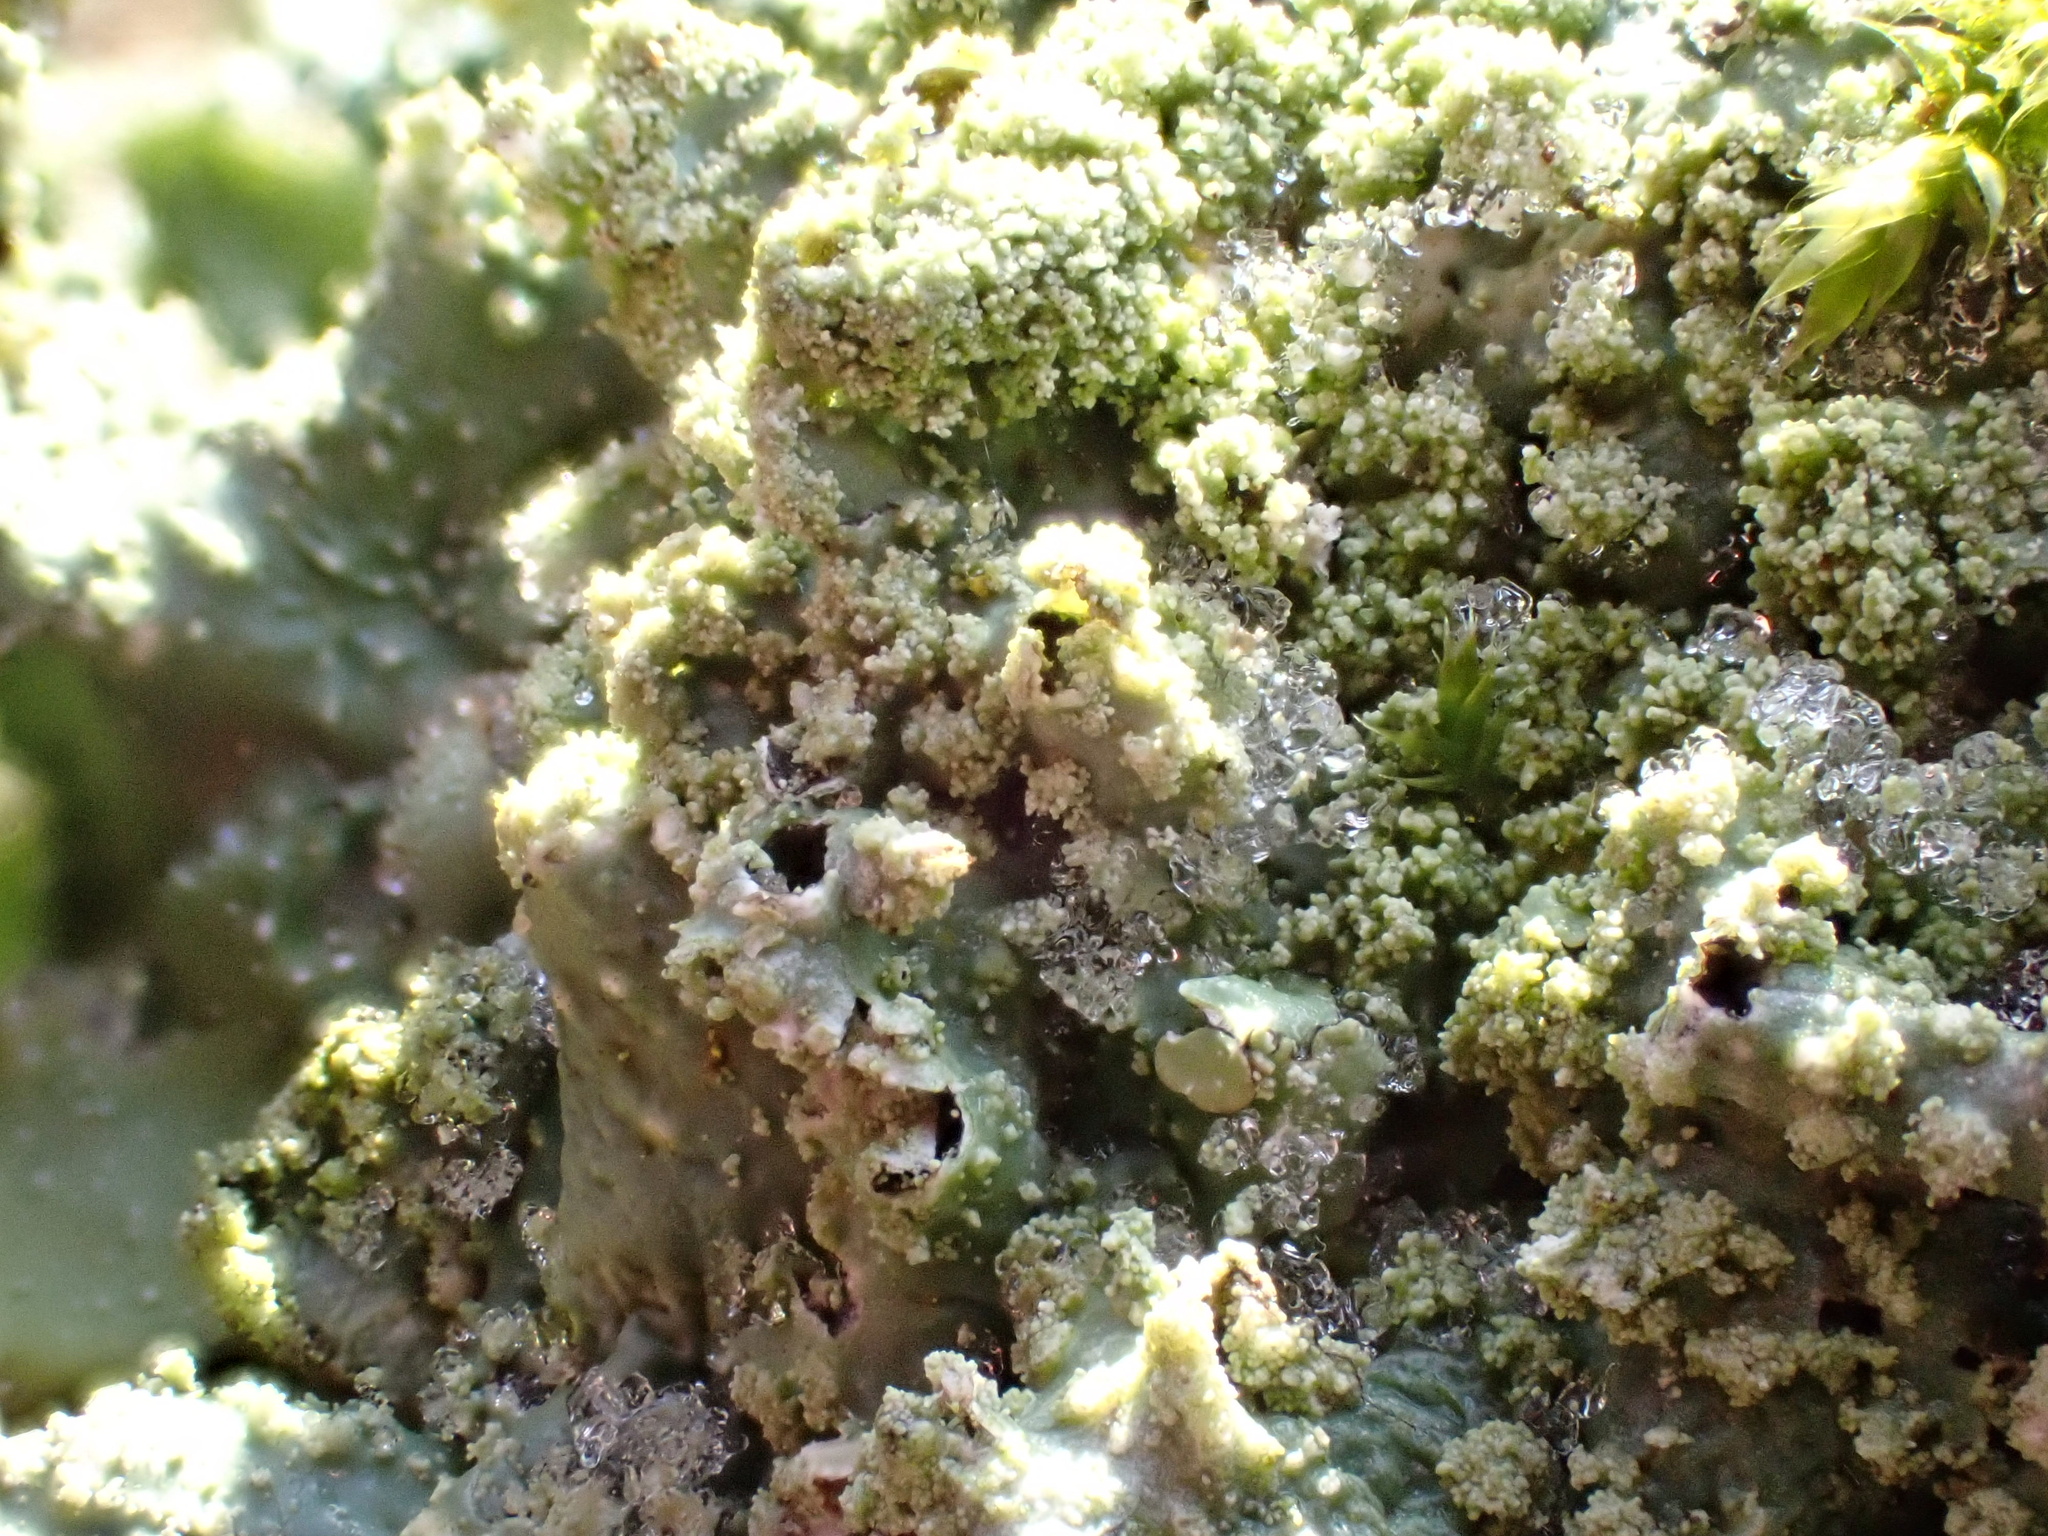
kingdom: Fungi
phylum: Ascomycota
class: Lecanoromycetes
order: Lecanorales
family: Parmeliaceae
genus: Punctelia
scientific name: Punctelia reddenda
